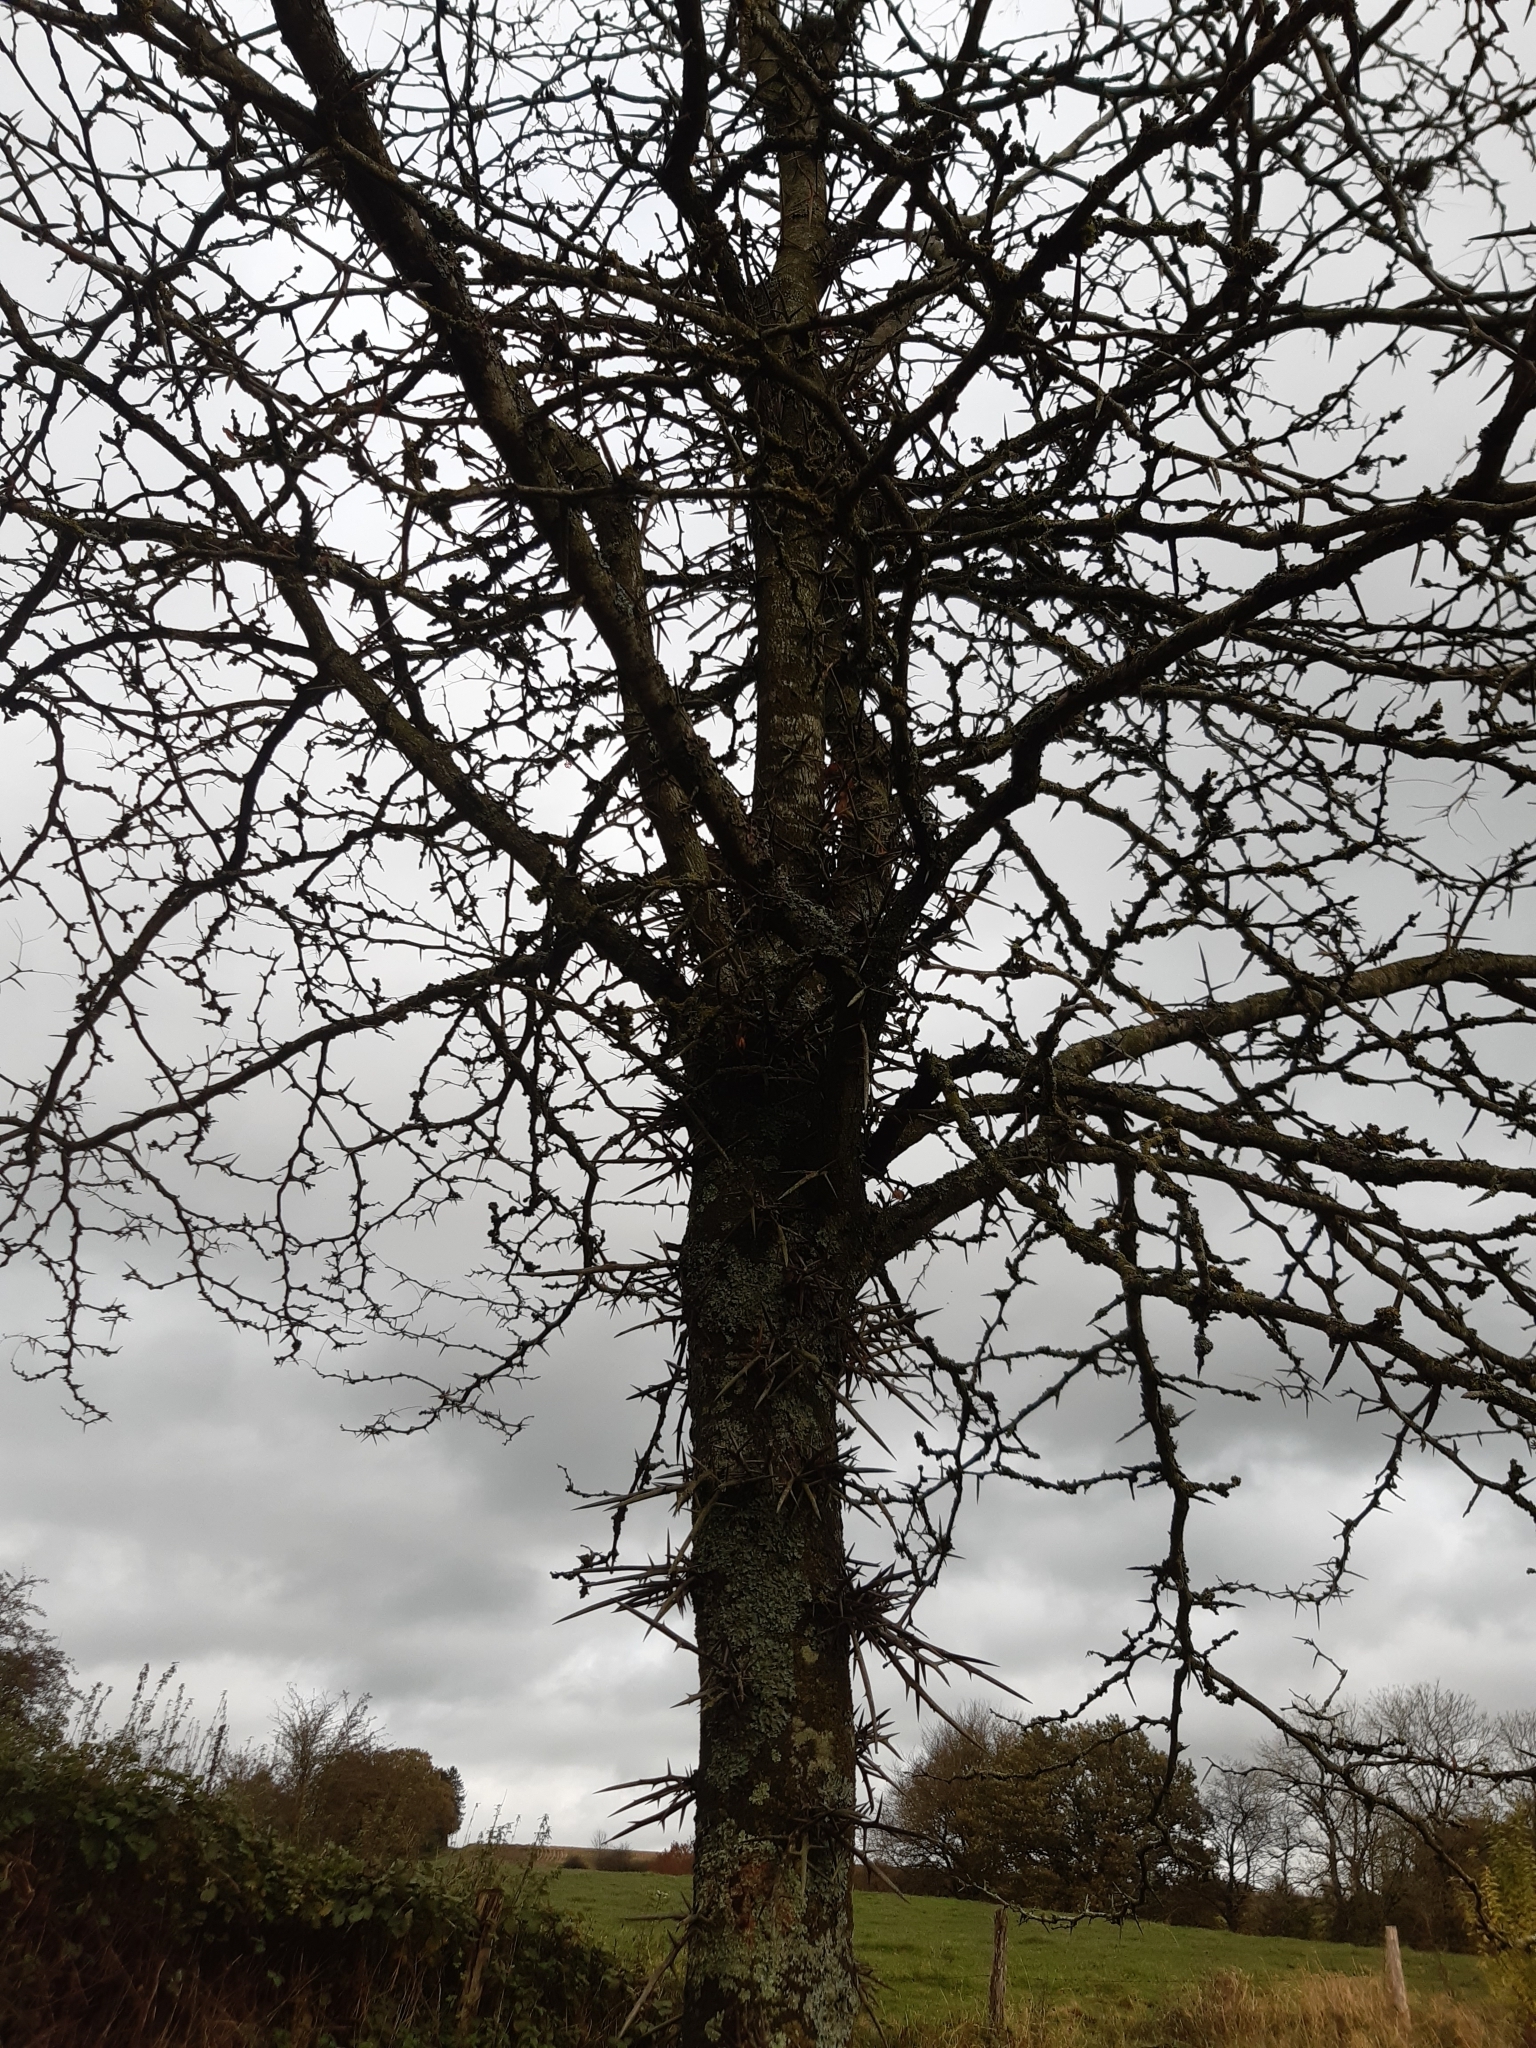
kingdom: Plantae
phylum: Tracheophyta
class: Magnoliopsida
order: Fabales
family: Fabaceae
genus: Gleditsia
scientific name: Gleditsia triacanthos
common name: Common honeylocust
